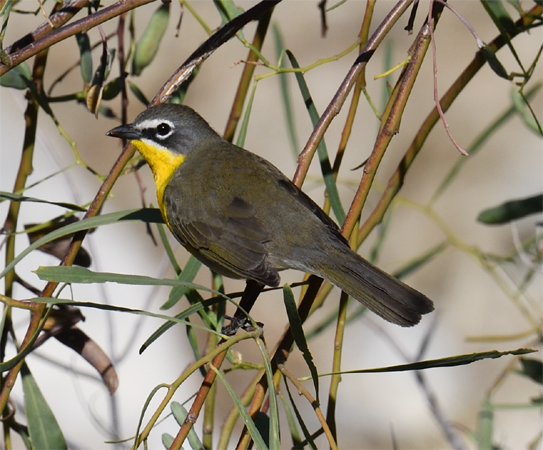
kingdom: Animalia
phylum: Chordata
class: Aves
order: Passeriformes
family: Parulidae
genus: Icteria
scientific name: Icteria virens
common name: Yellow-breasted chat
